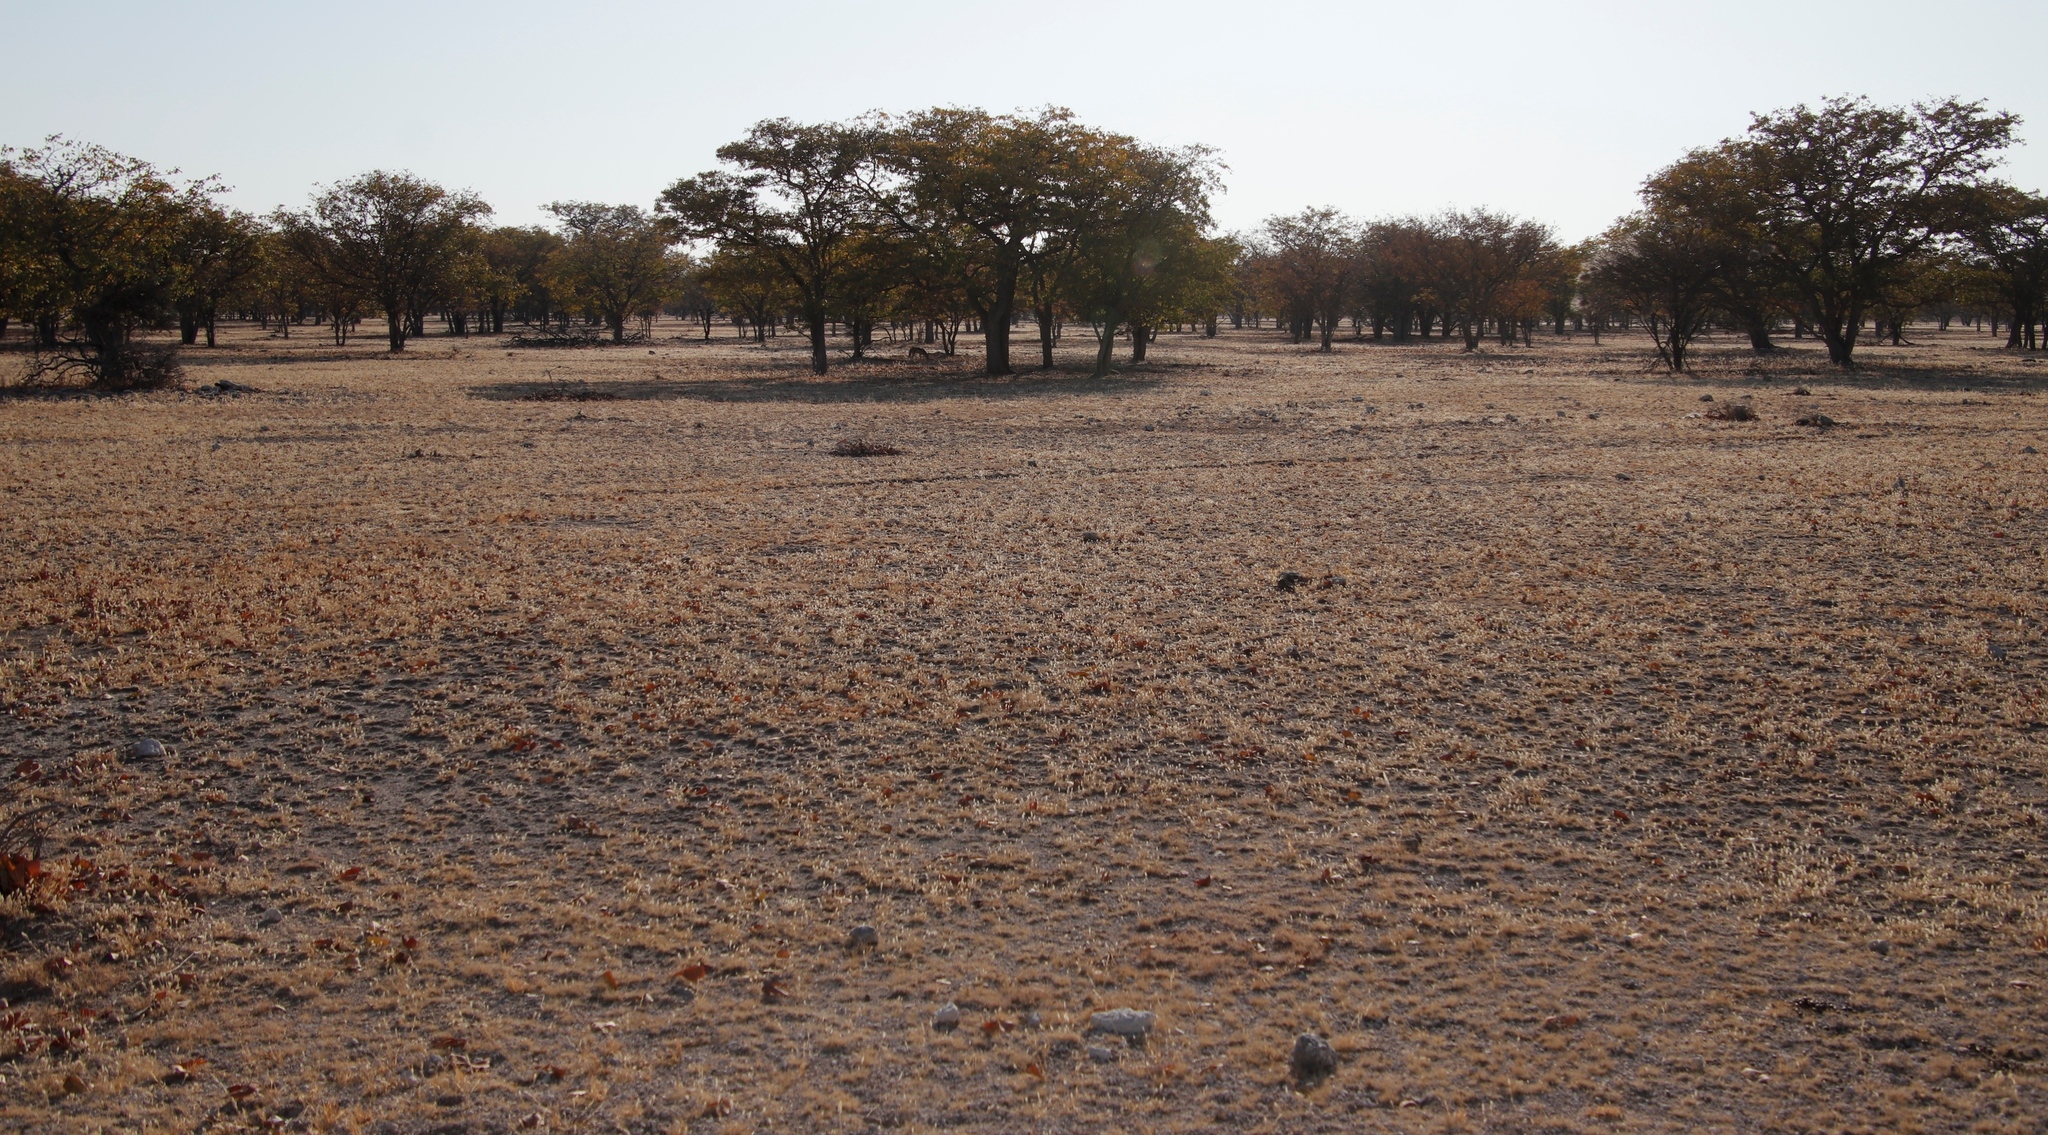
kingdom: Plantae
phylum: Tracheophyta
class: Magnoliopsida
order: Fabales
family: Fabaceae
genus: Colophospermum
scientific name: Colophospermum mopane
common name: Mopane
